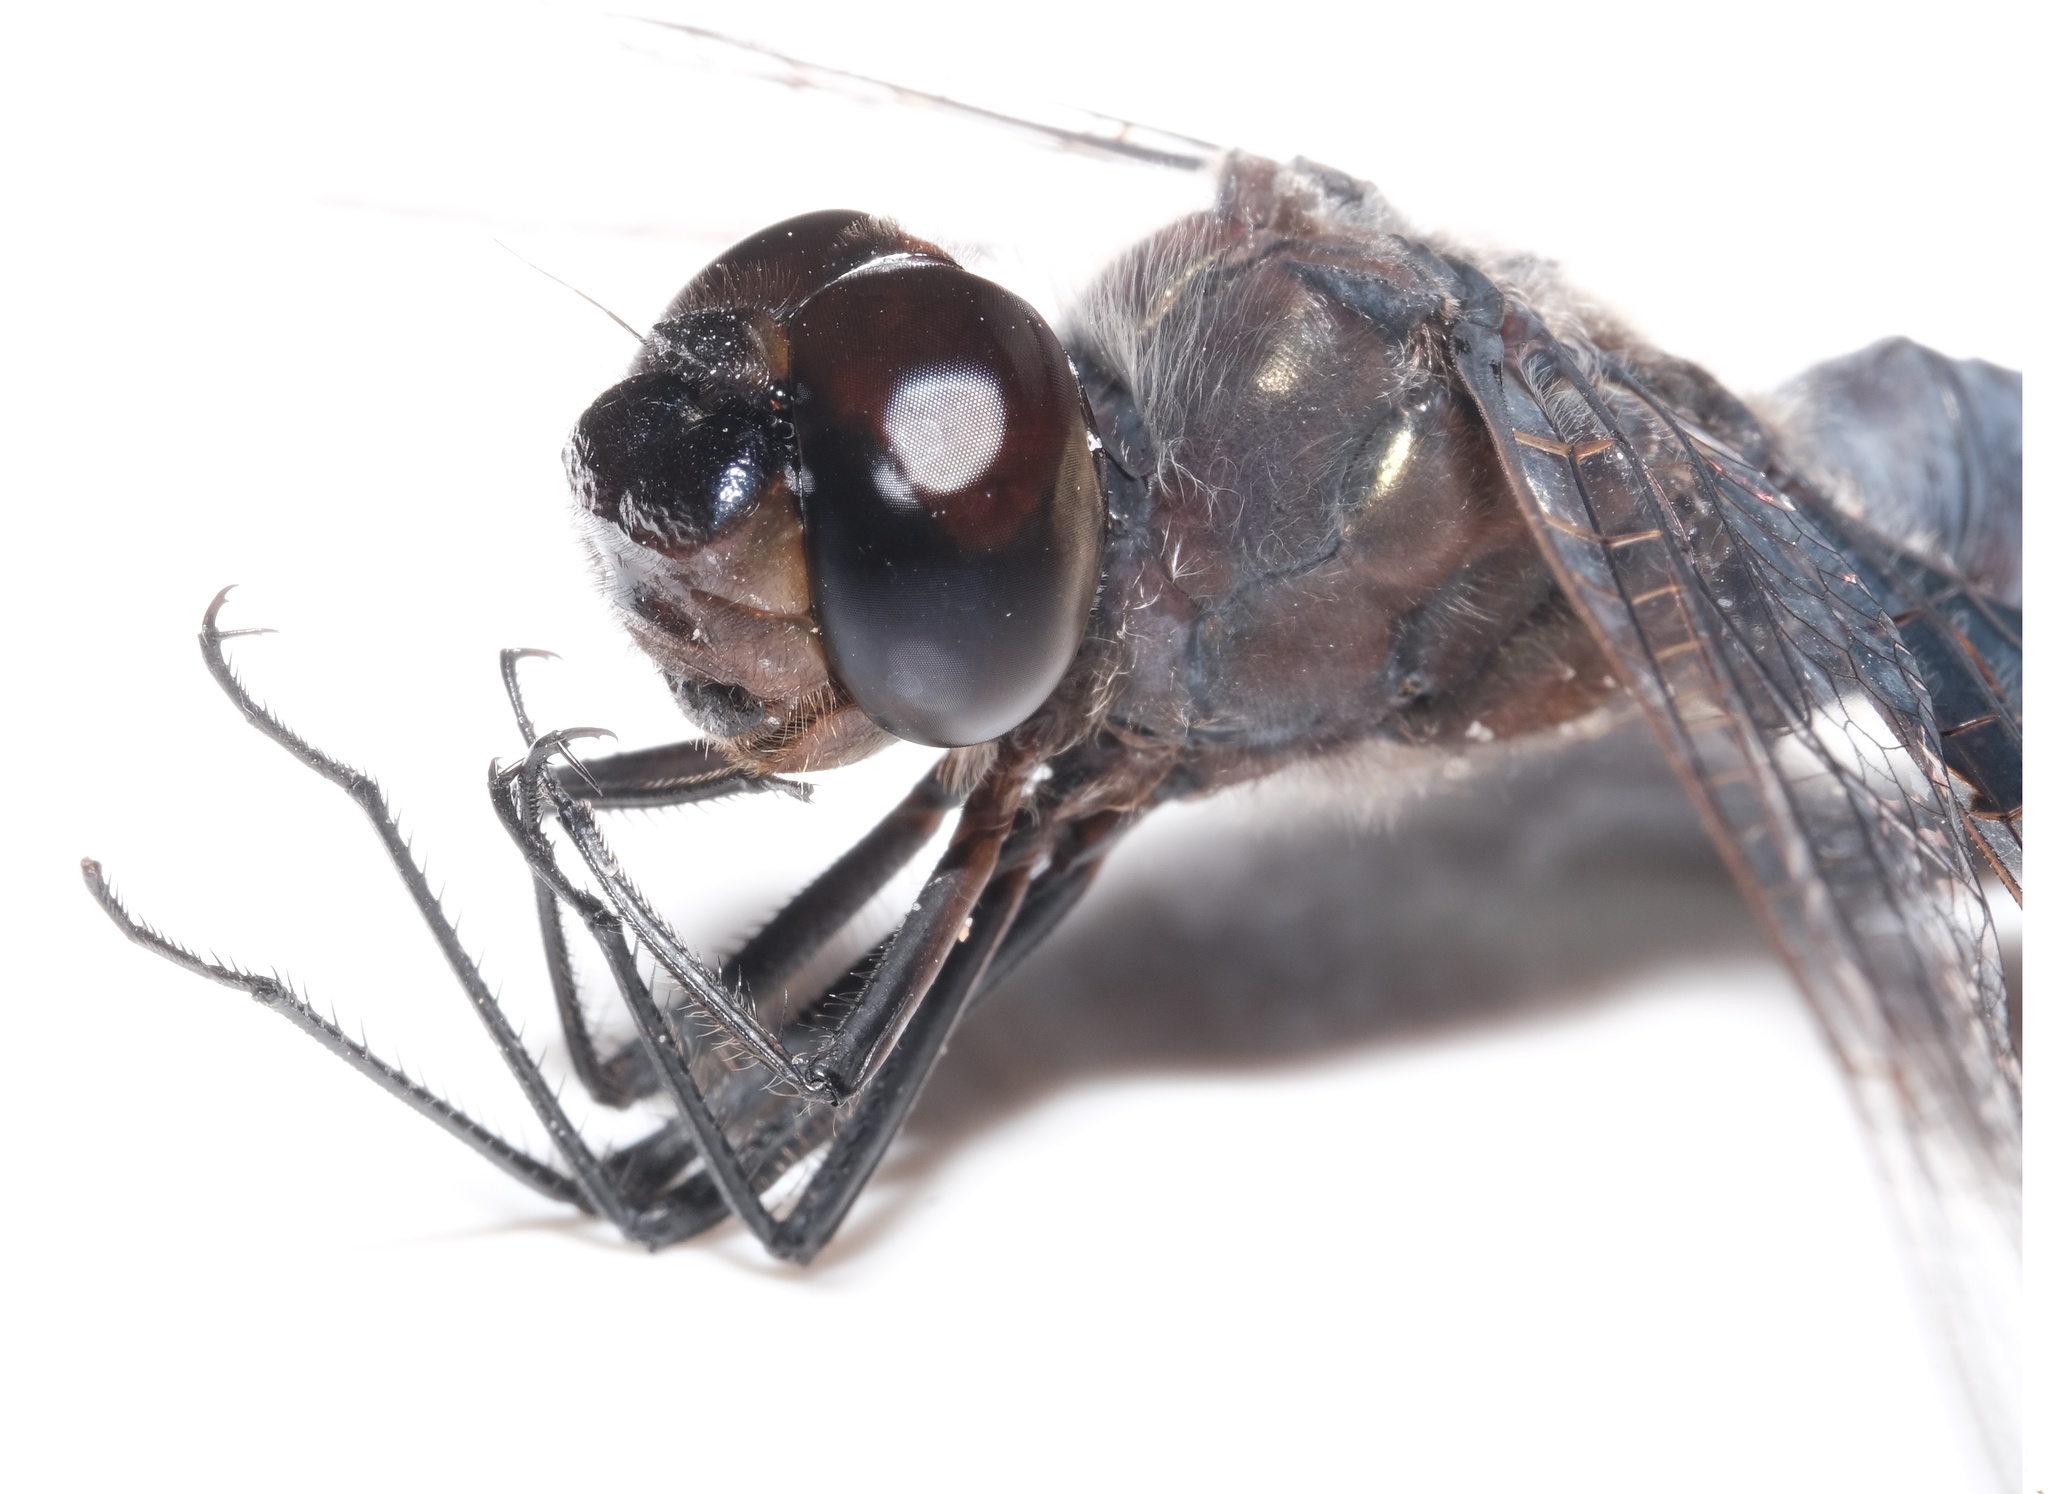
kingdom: Animalia
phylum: Arthropoda
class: Insecta
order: Odonata
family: Libellulidae
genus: Tramea
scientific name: Tramea lacerata
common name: Black saddlebags
